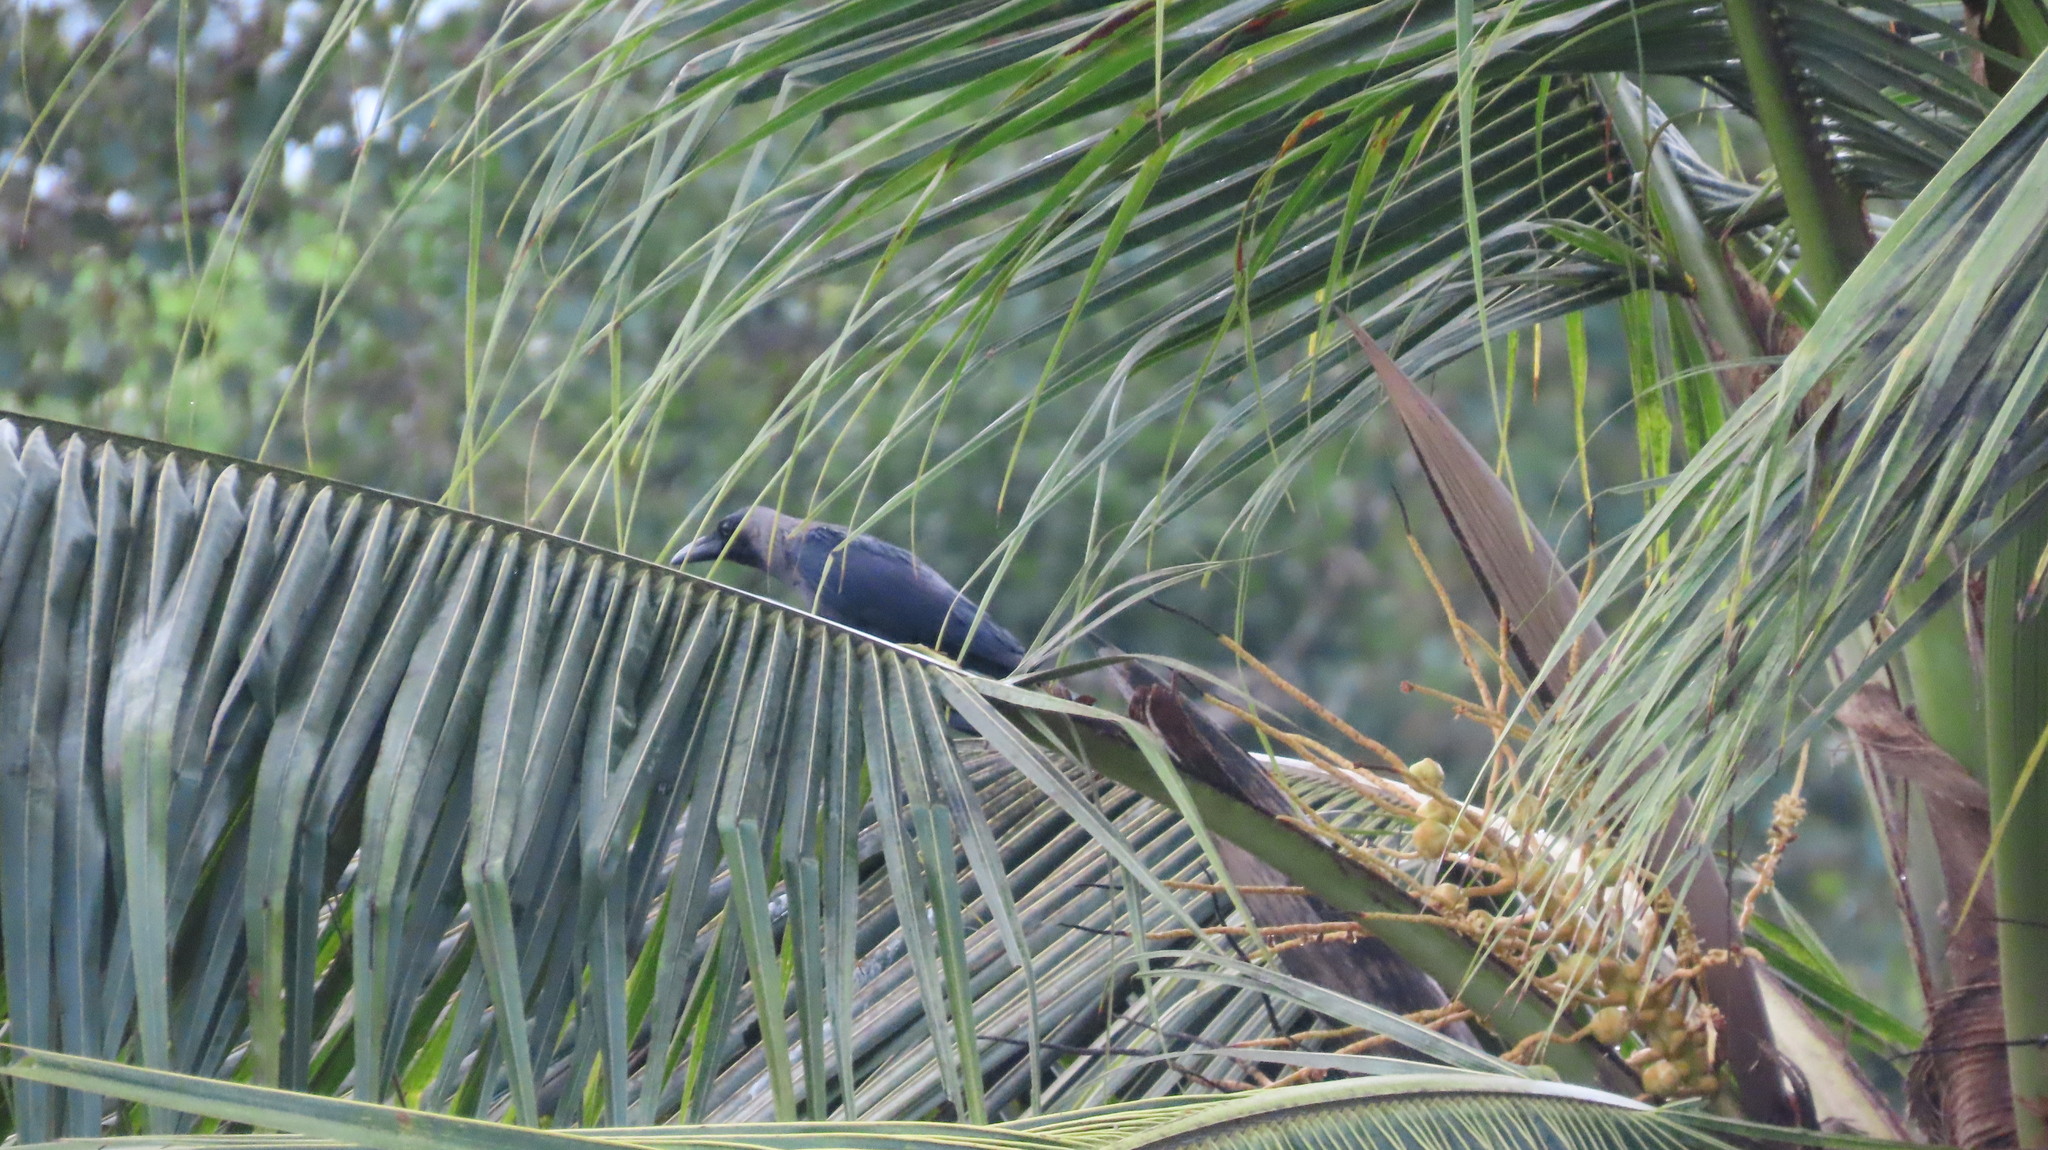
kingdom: Animalia
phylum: Chordata
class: Aves
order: Passeriformes
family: Corvidae
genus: Corvus
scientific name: Corvus splendens
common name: House crow
